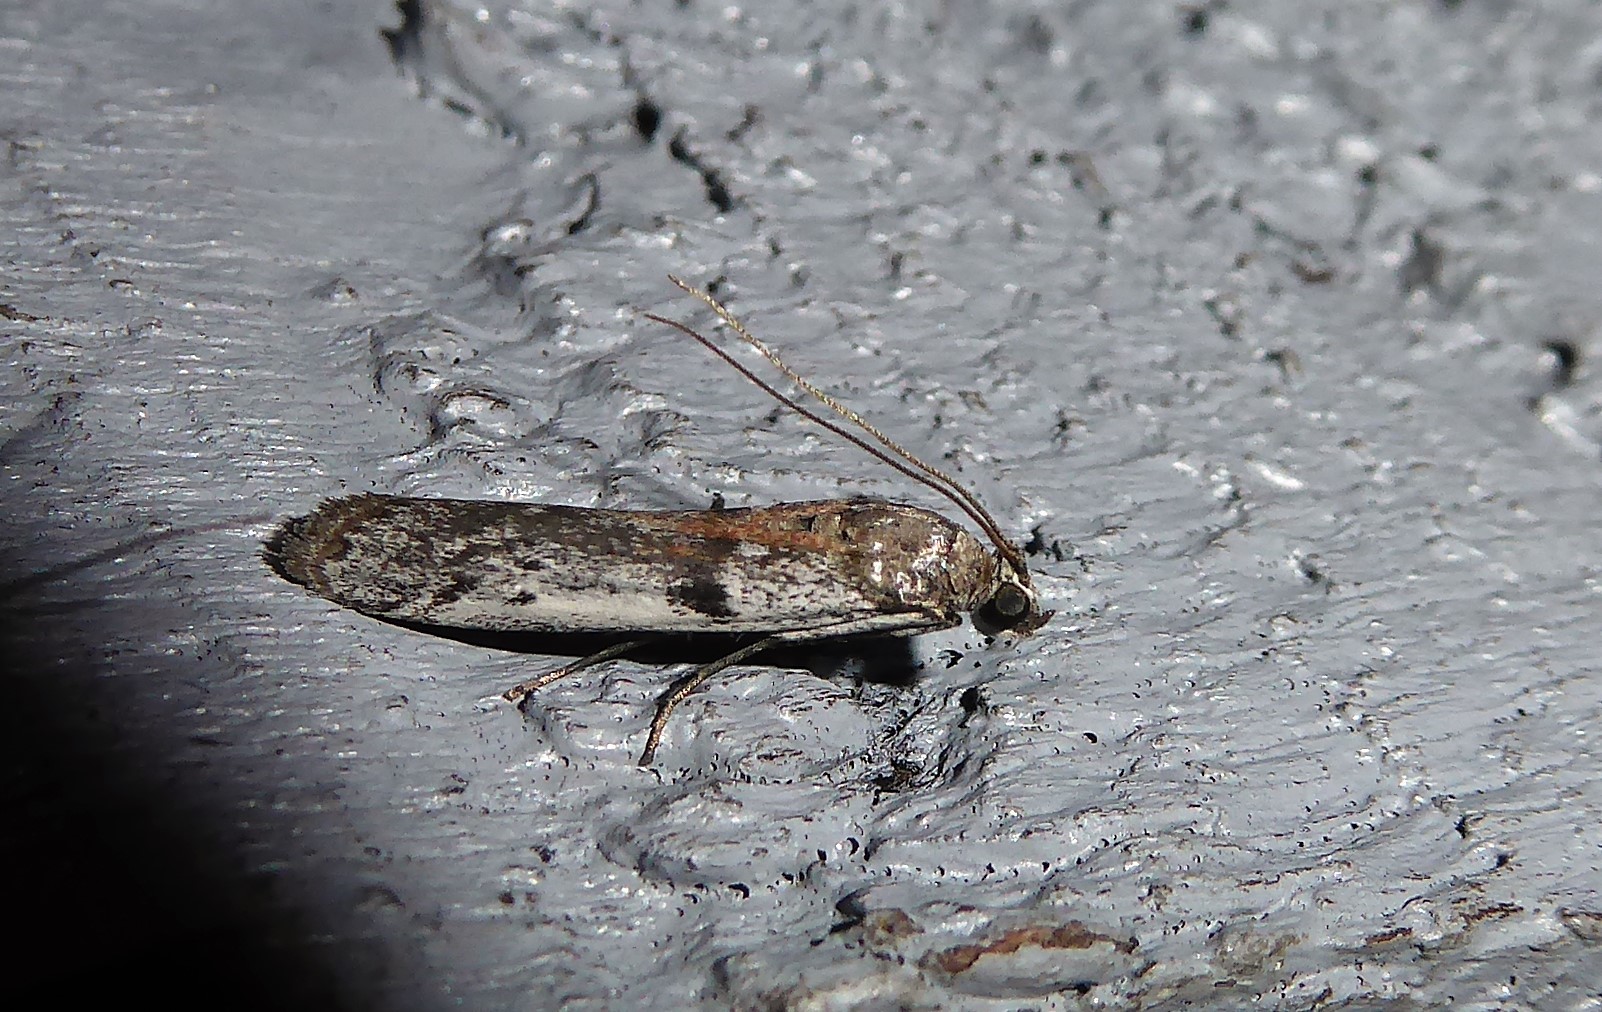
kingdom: Animalia
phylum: Arthropoda
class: Insecta
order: Lepidoptera
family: Pyralidae
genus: Patagoniodes
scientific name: Patagoniodes farinaria
